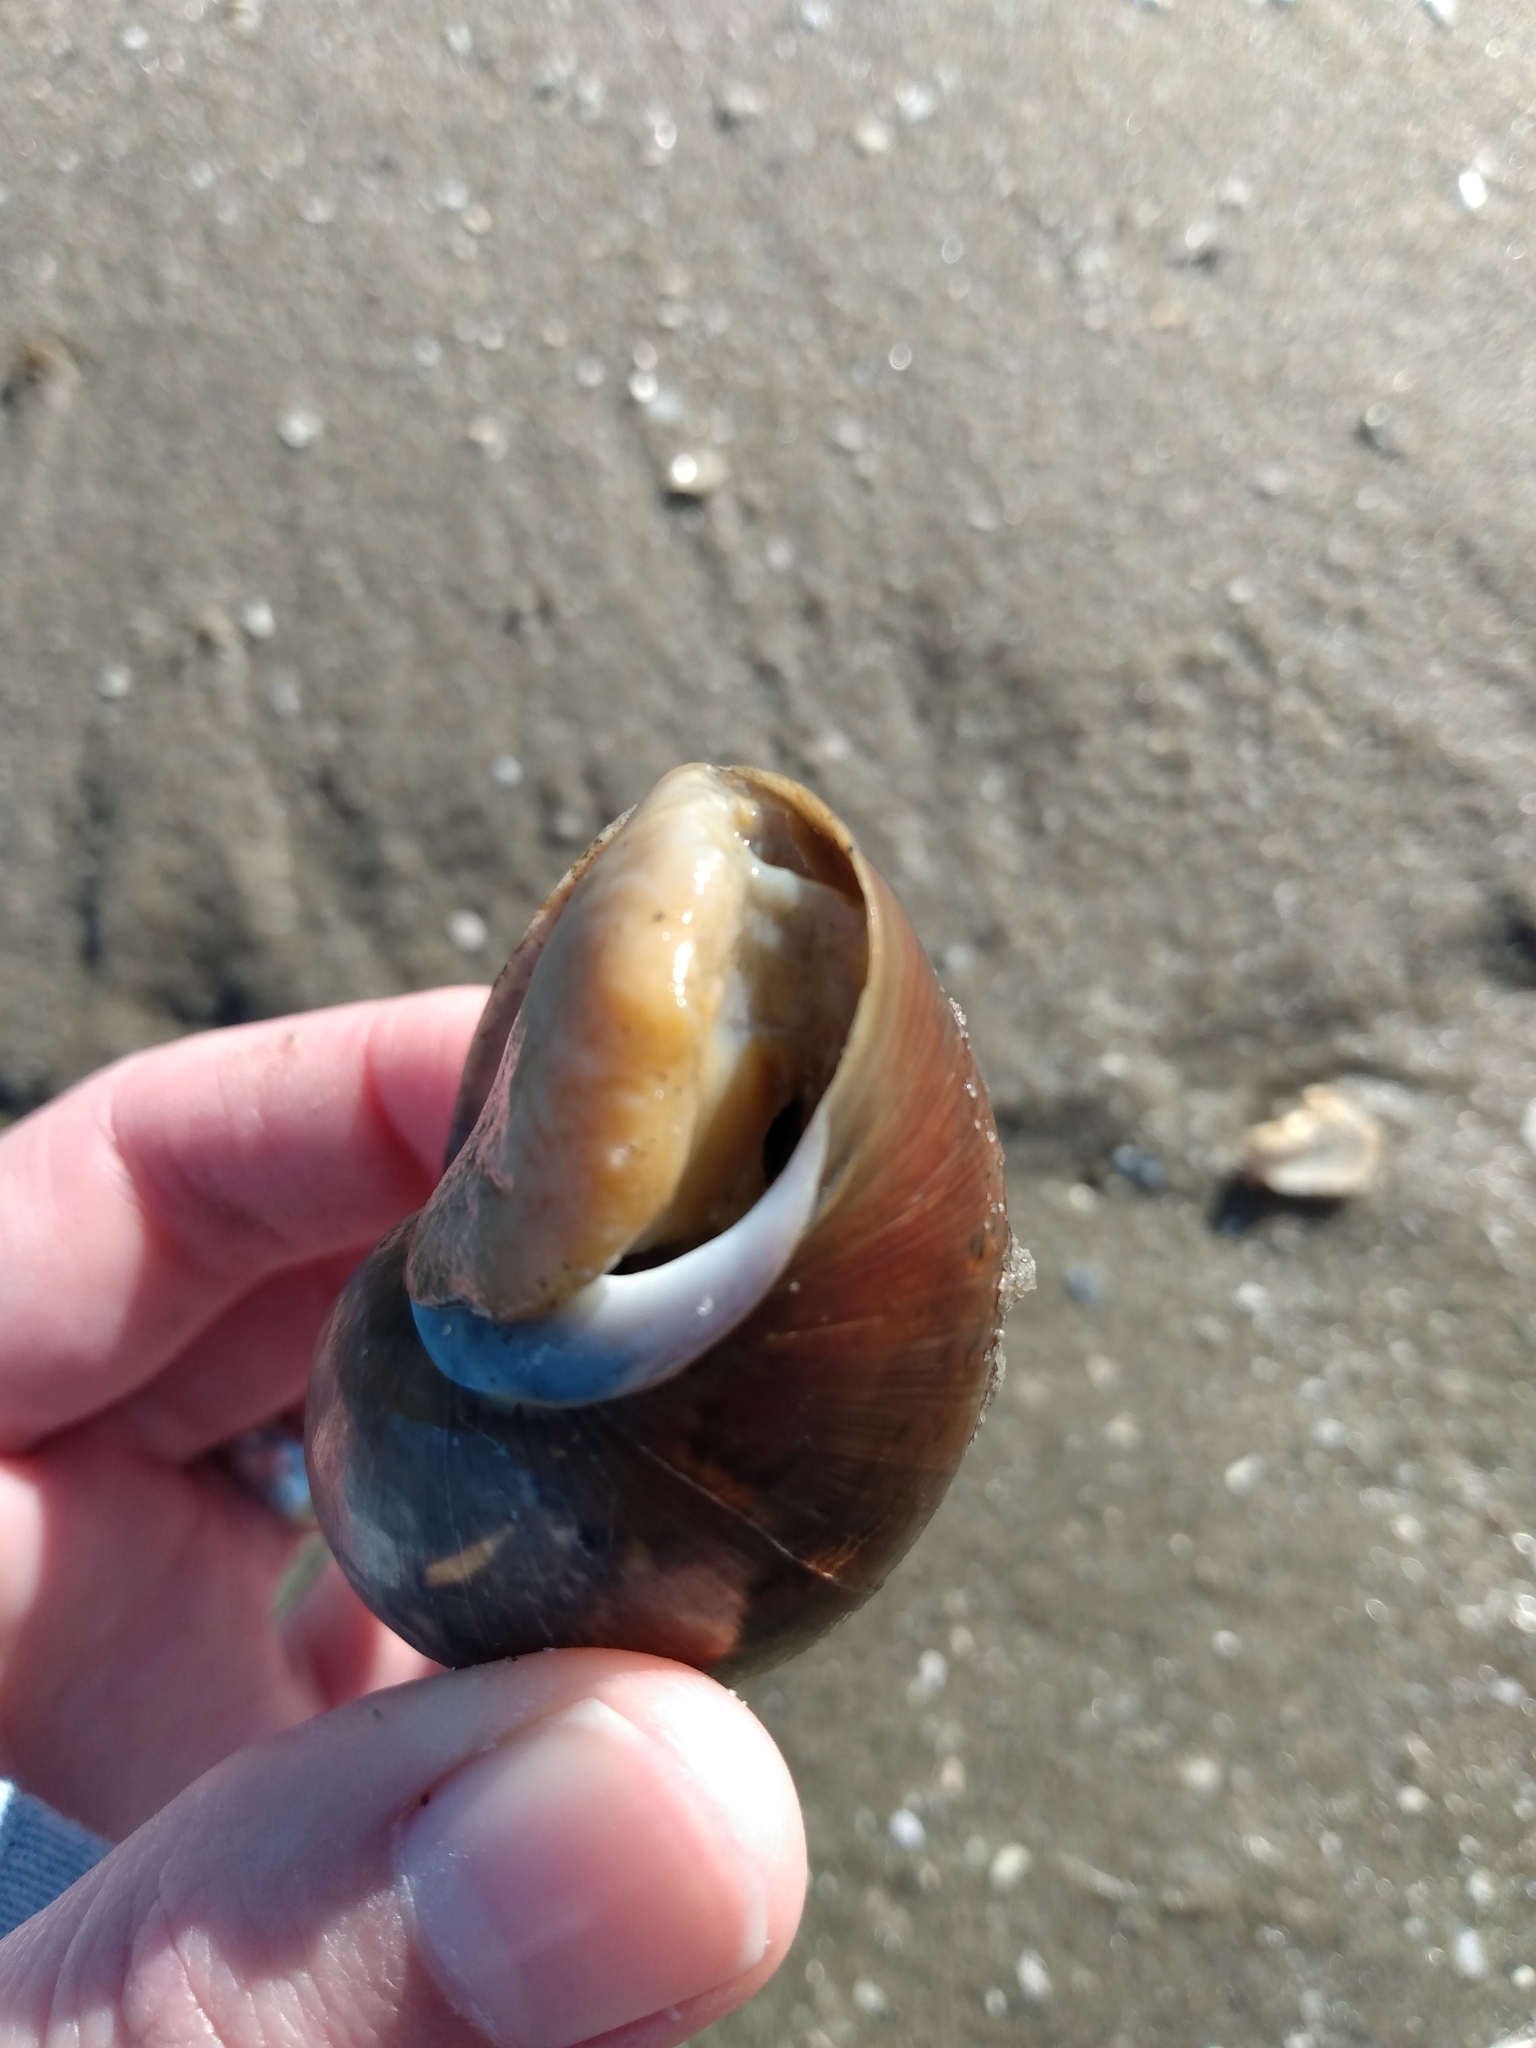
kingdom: Animalia
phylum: Mollusca
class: Gastropoda
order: Cephalaspidea
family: Bullidae
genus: Bulla
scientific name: Bulla gouldiana
